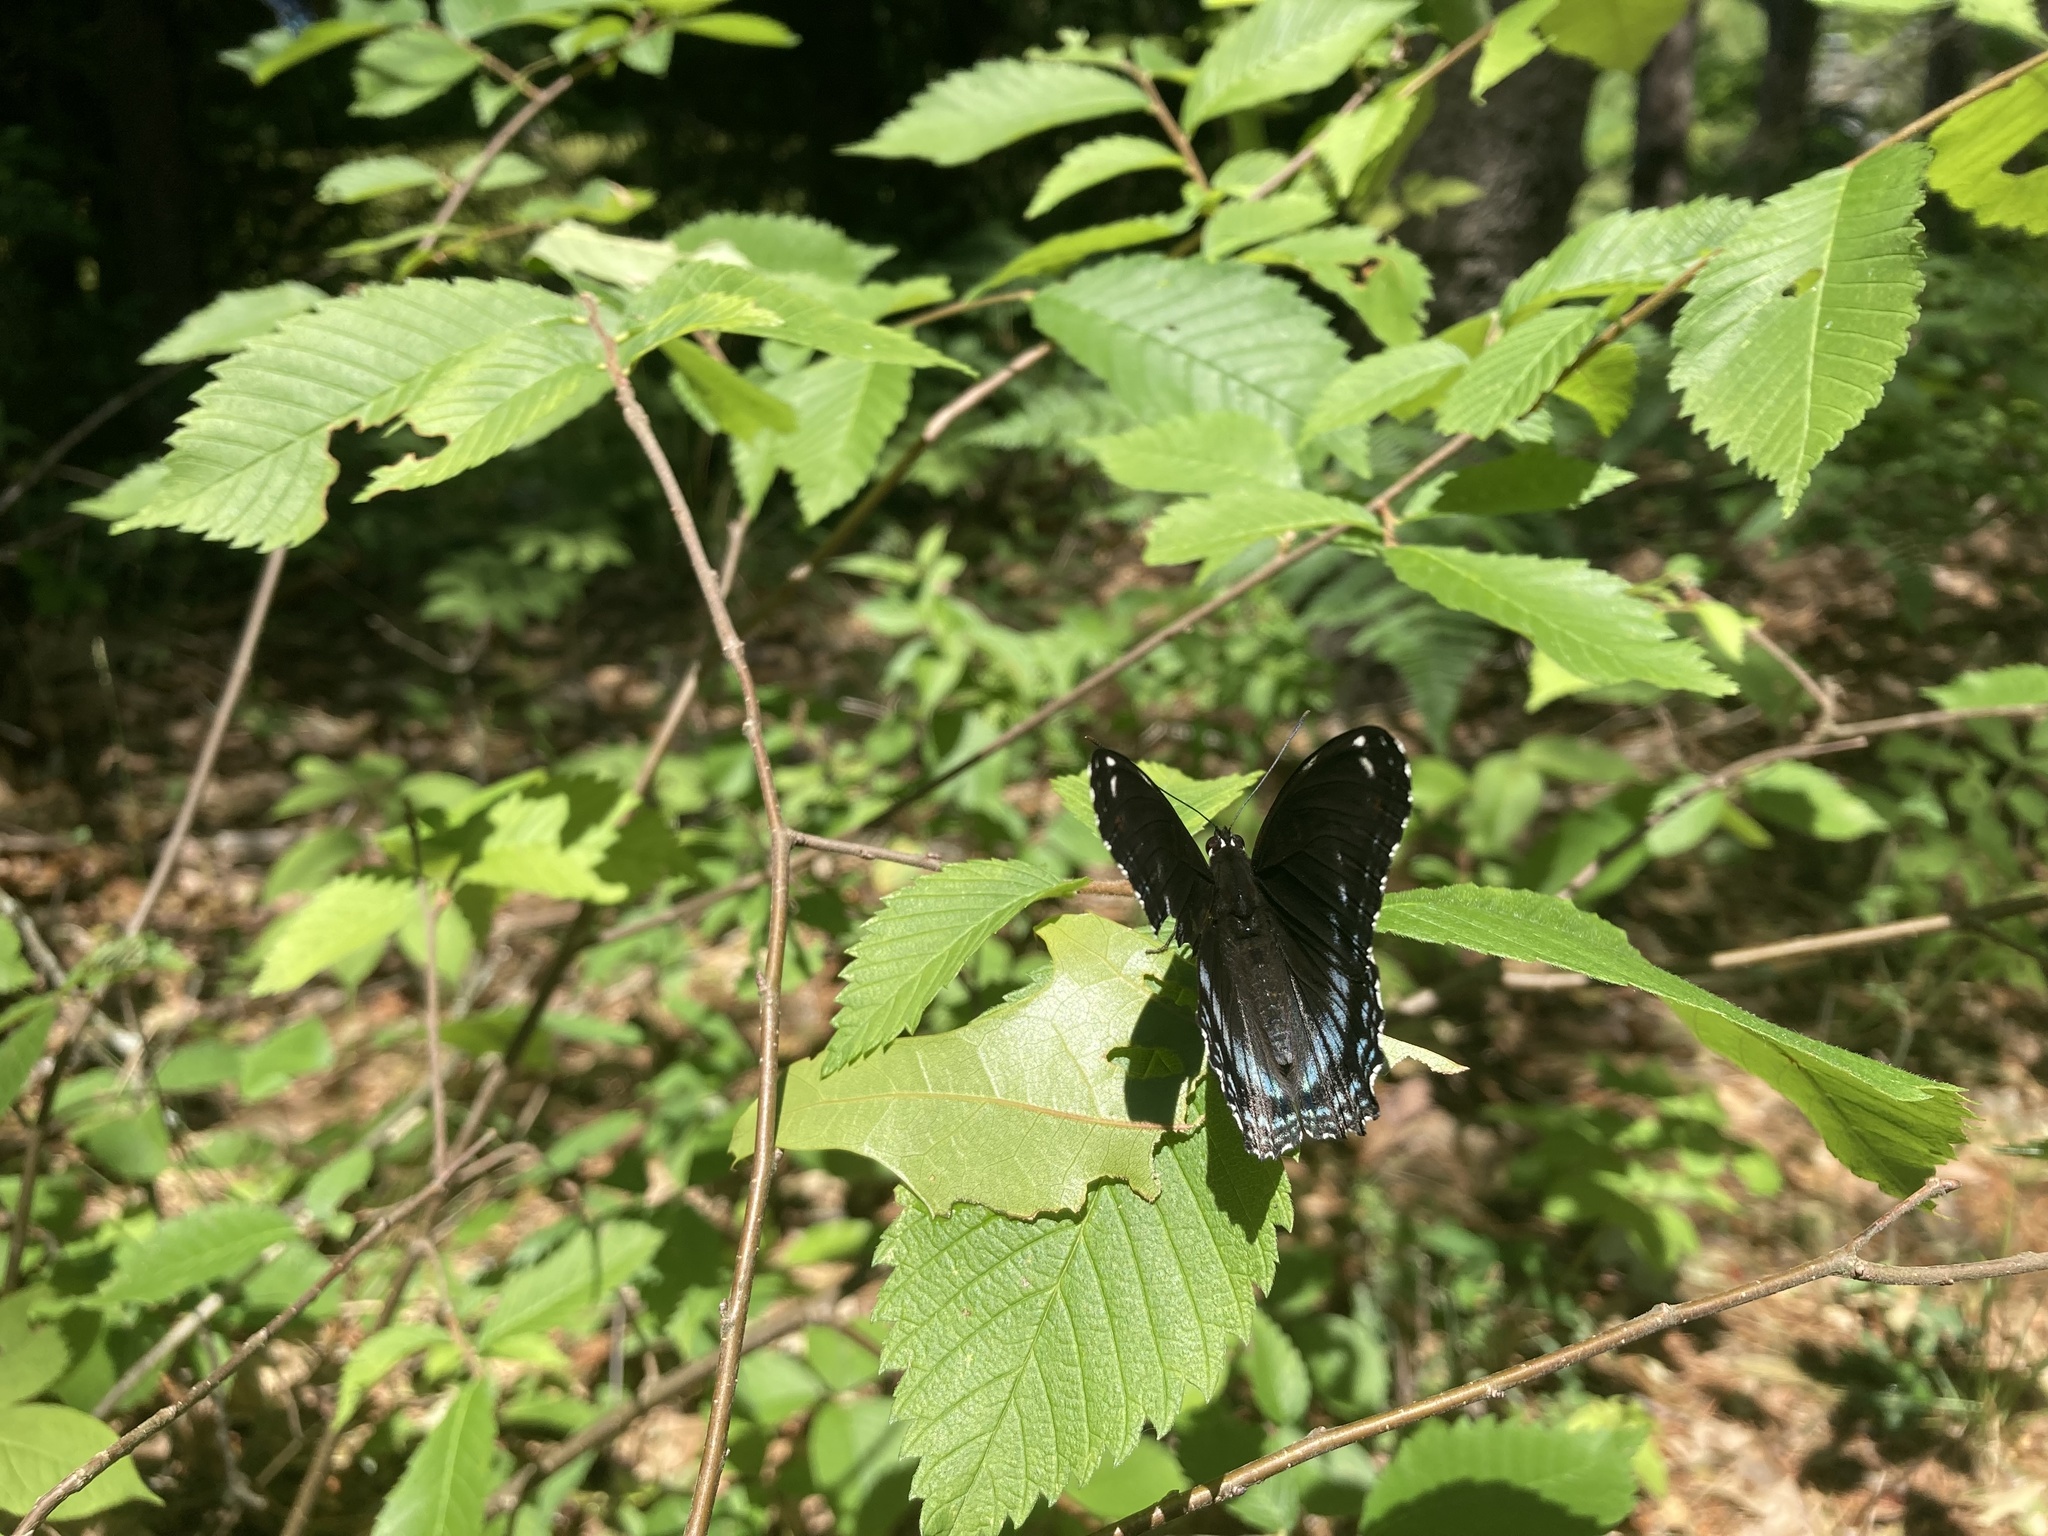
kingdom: Animalia
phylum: Arthropoda
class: Insecta
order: Lepidoptera
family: Nymphalidae
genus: Limenitis
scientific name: Limenitis astyanax
